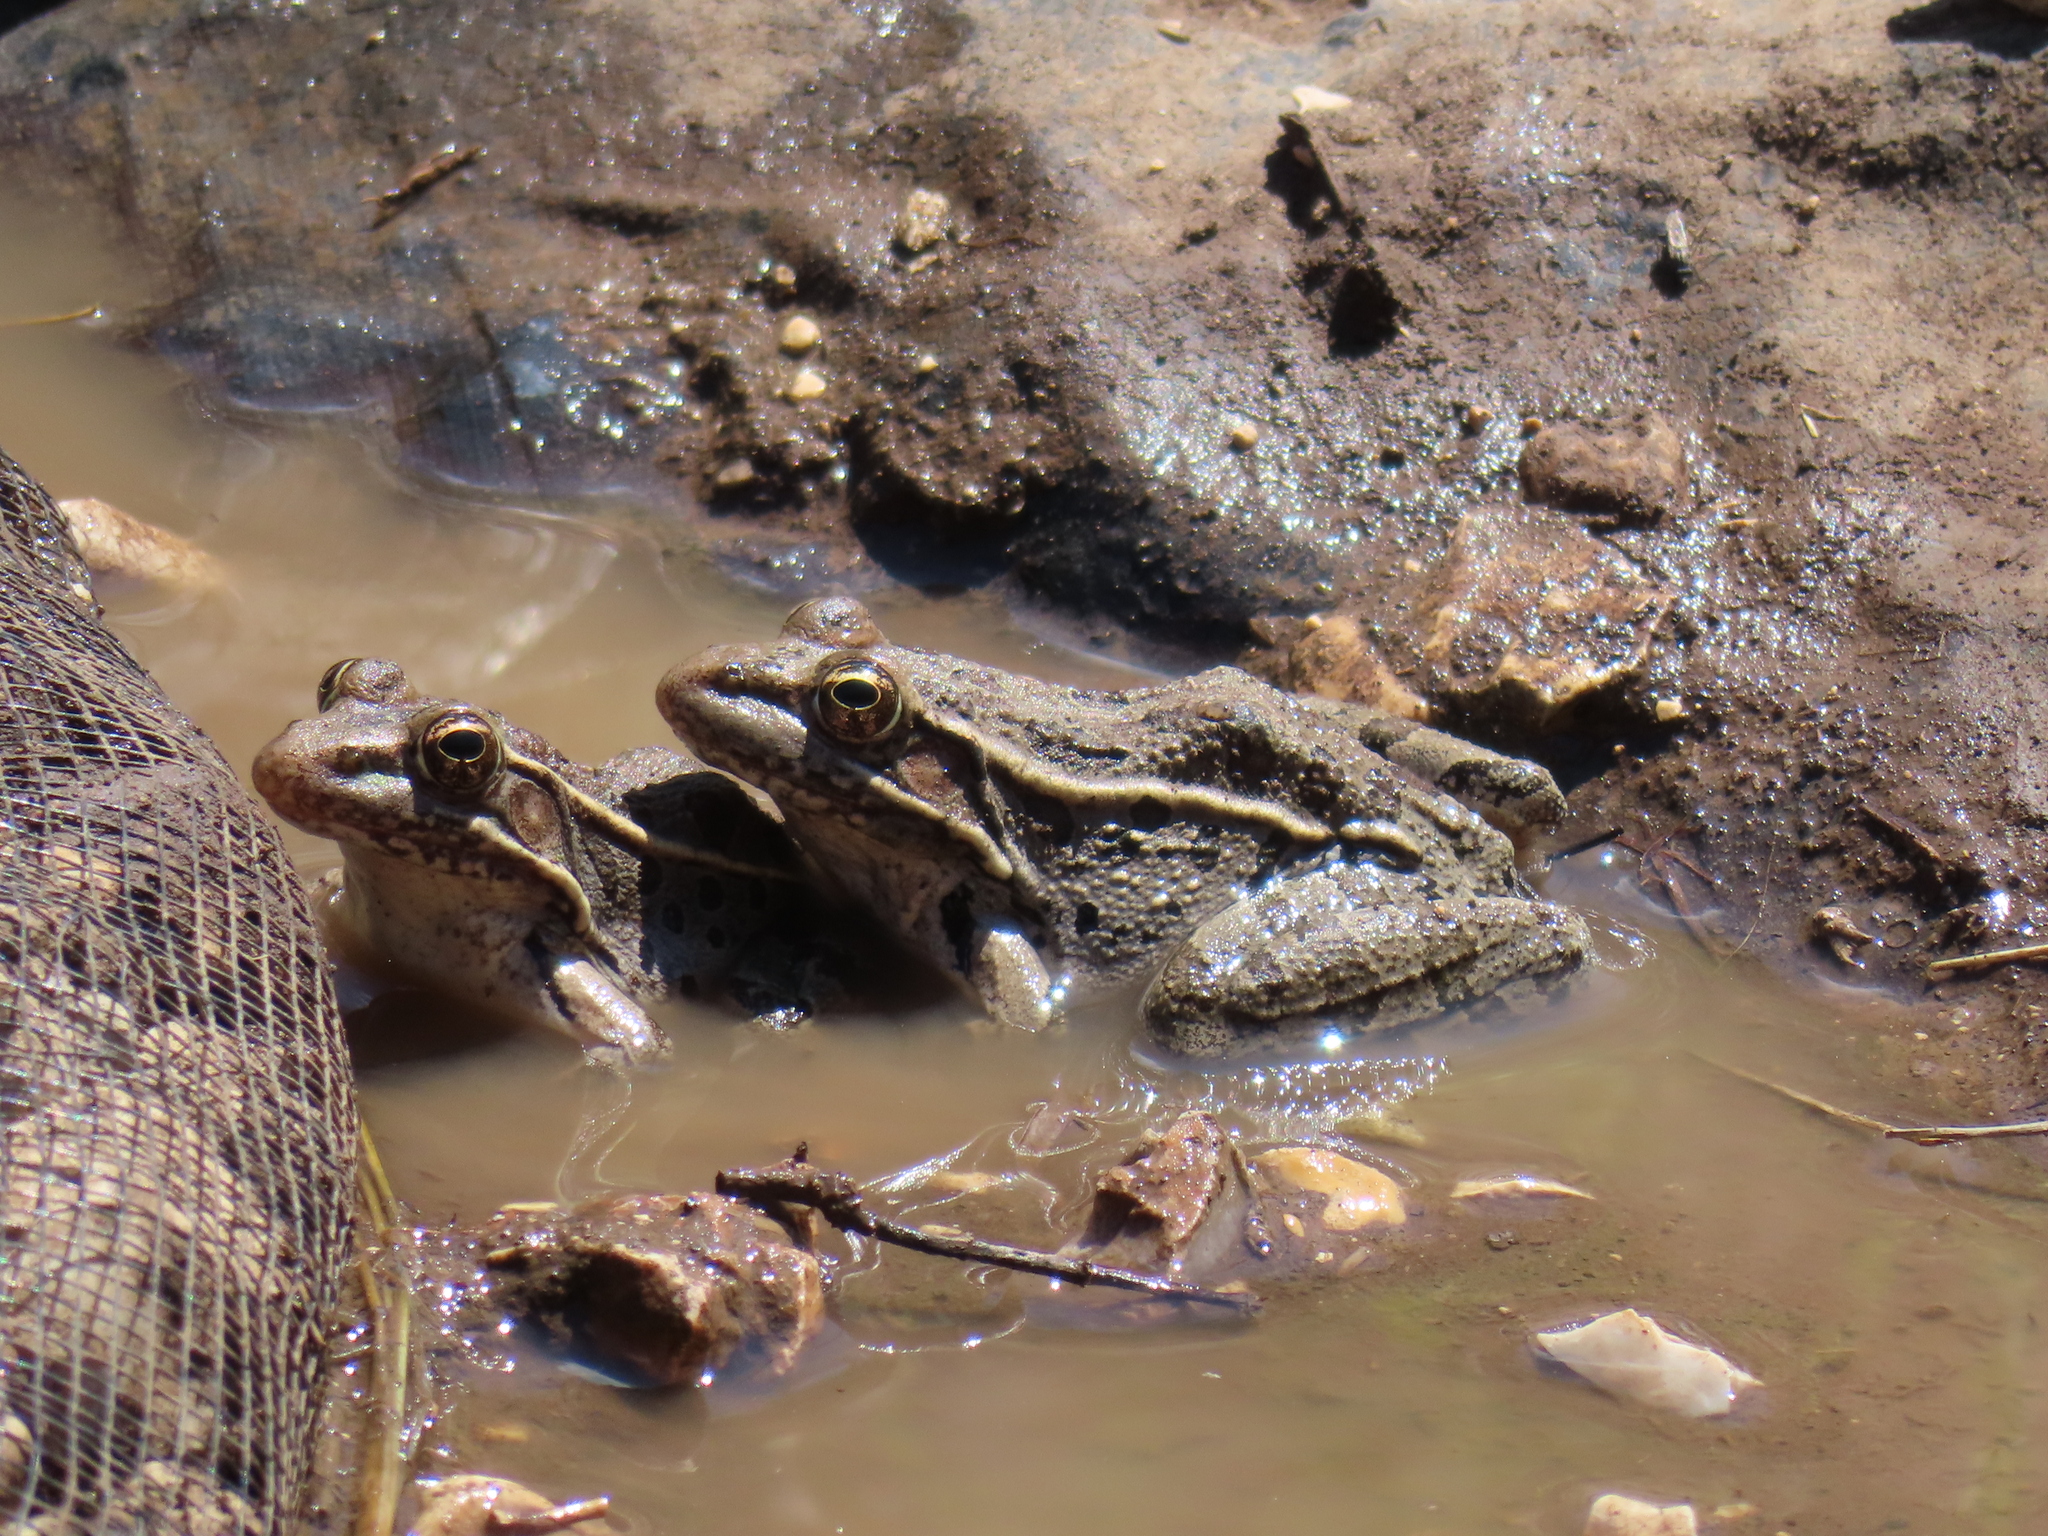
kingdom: Animalia
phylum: Chordata
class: Amphibia
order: Anura
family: Ranidae
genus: Lithobates
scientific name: Lithobates berlandieri
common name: Rio grande leopard frog
